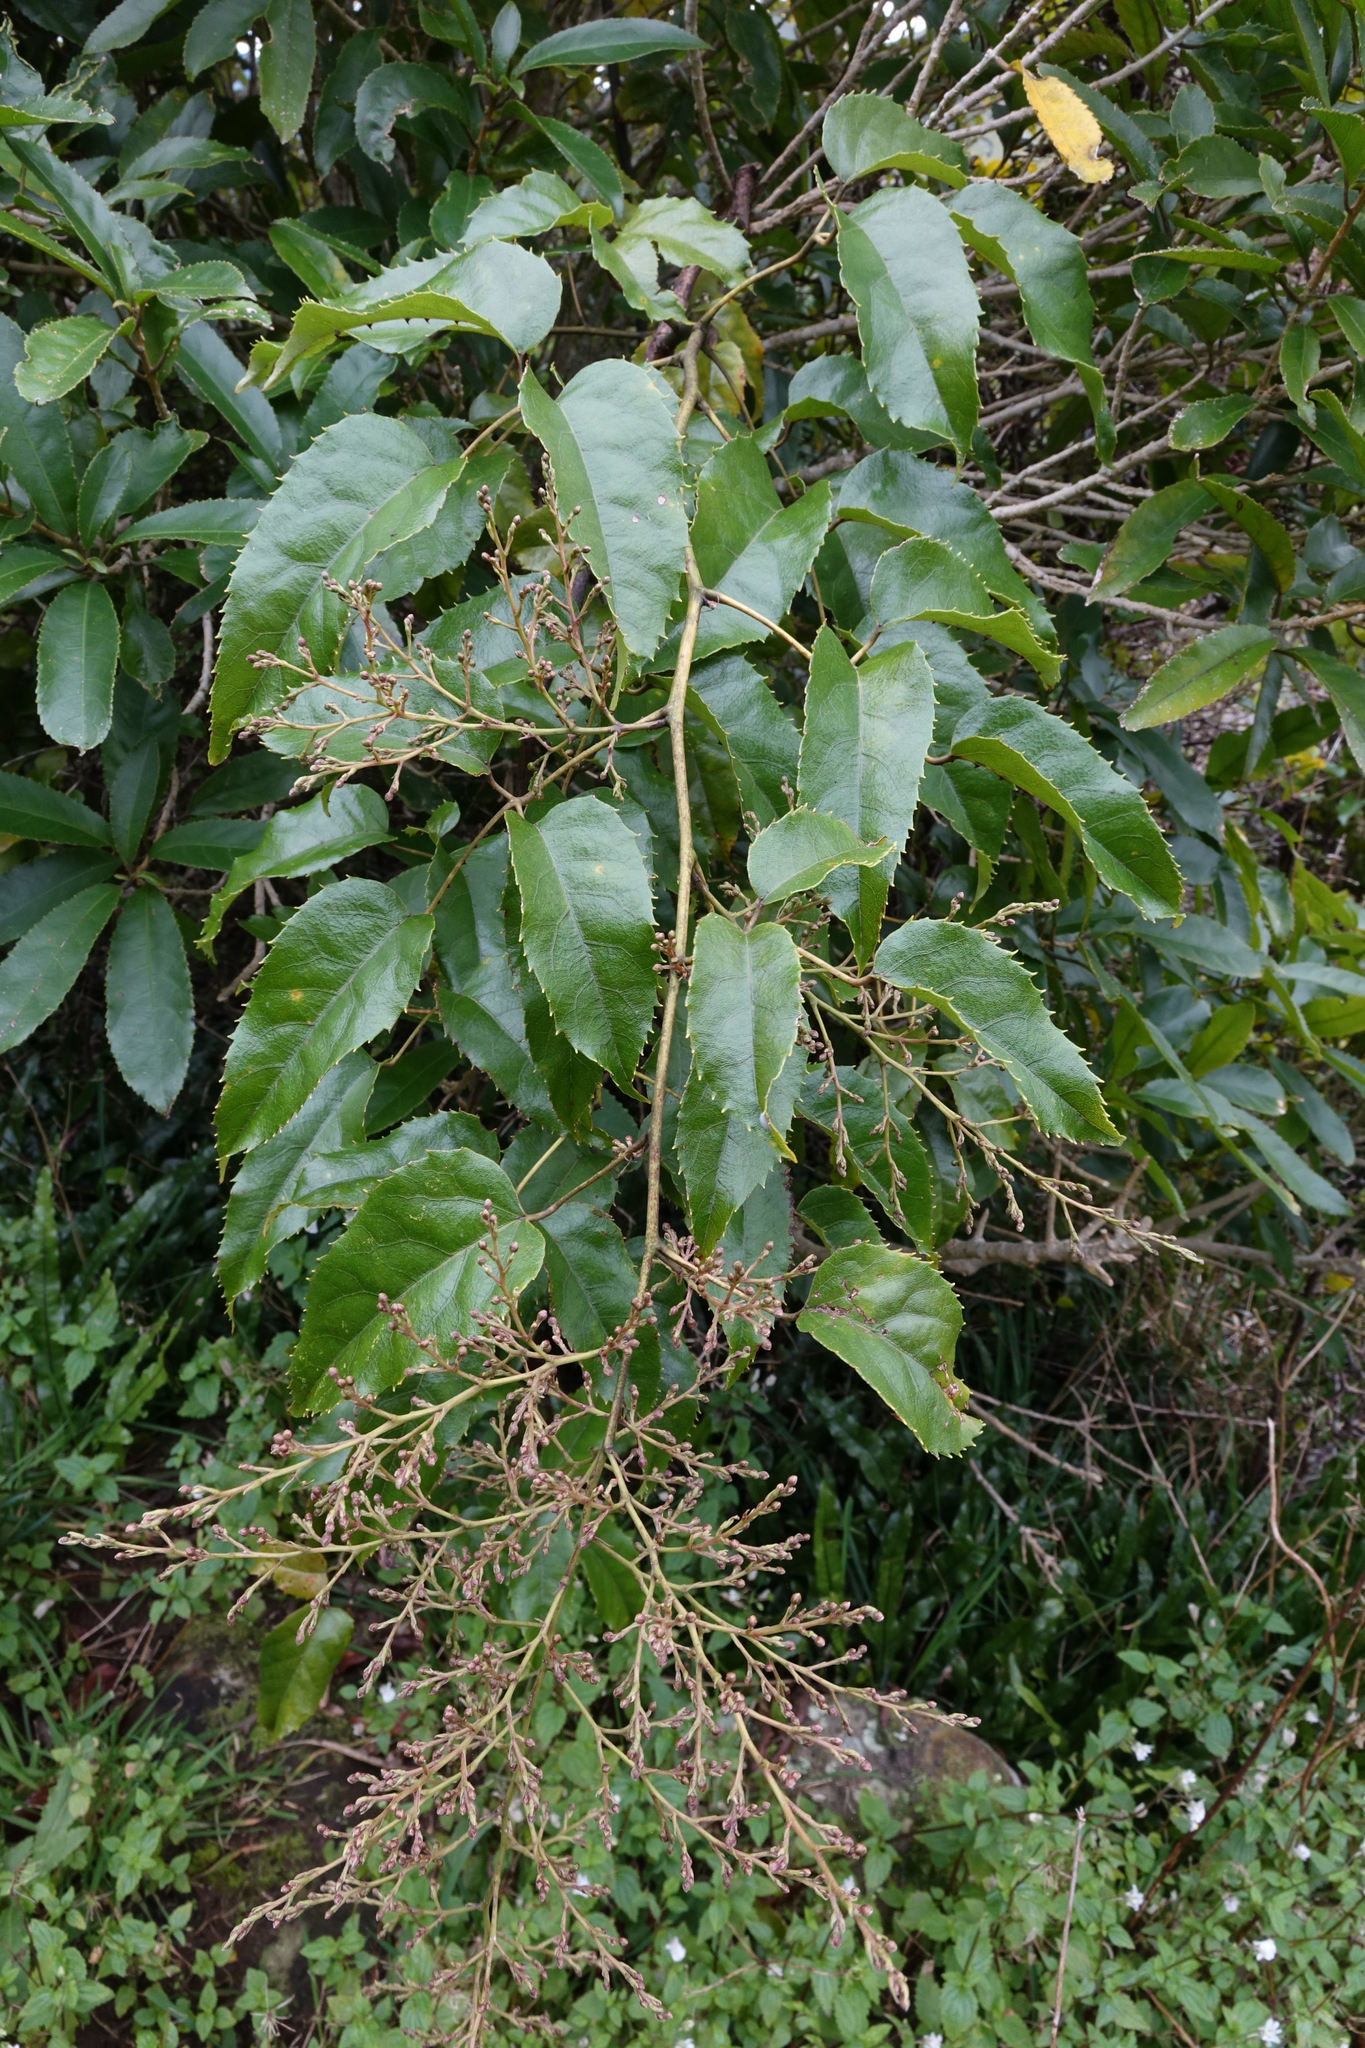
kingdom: Plantae
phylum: Tracheophyta
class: Magnoliopsida
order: Rosales
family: Rosaceae
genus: Rubus
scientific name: Rubus cissoides
